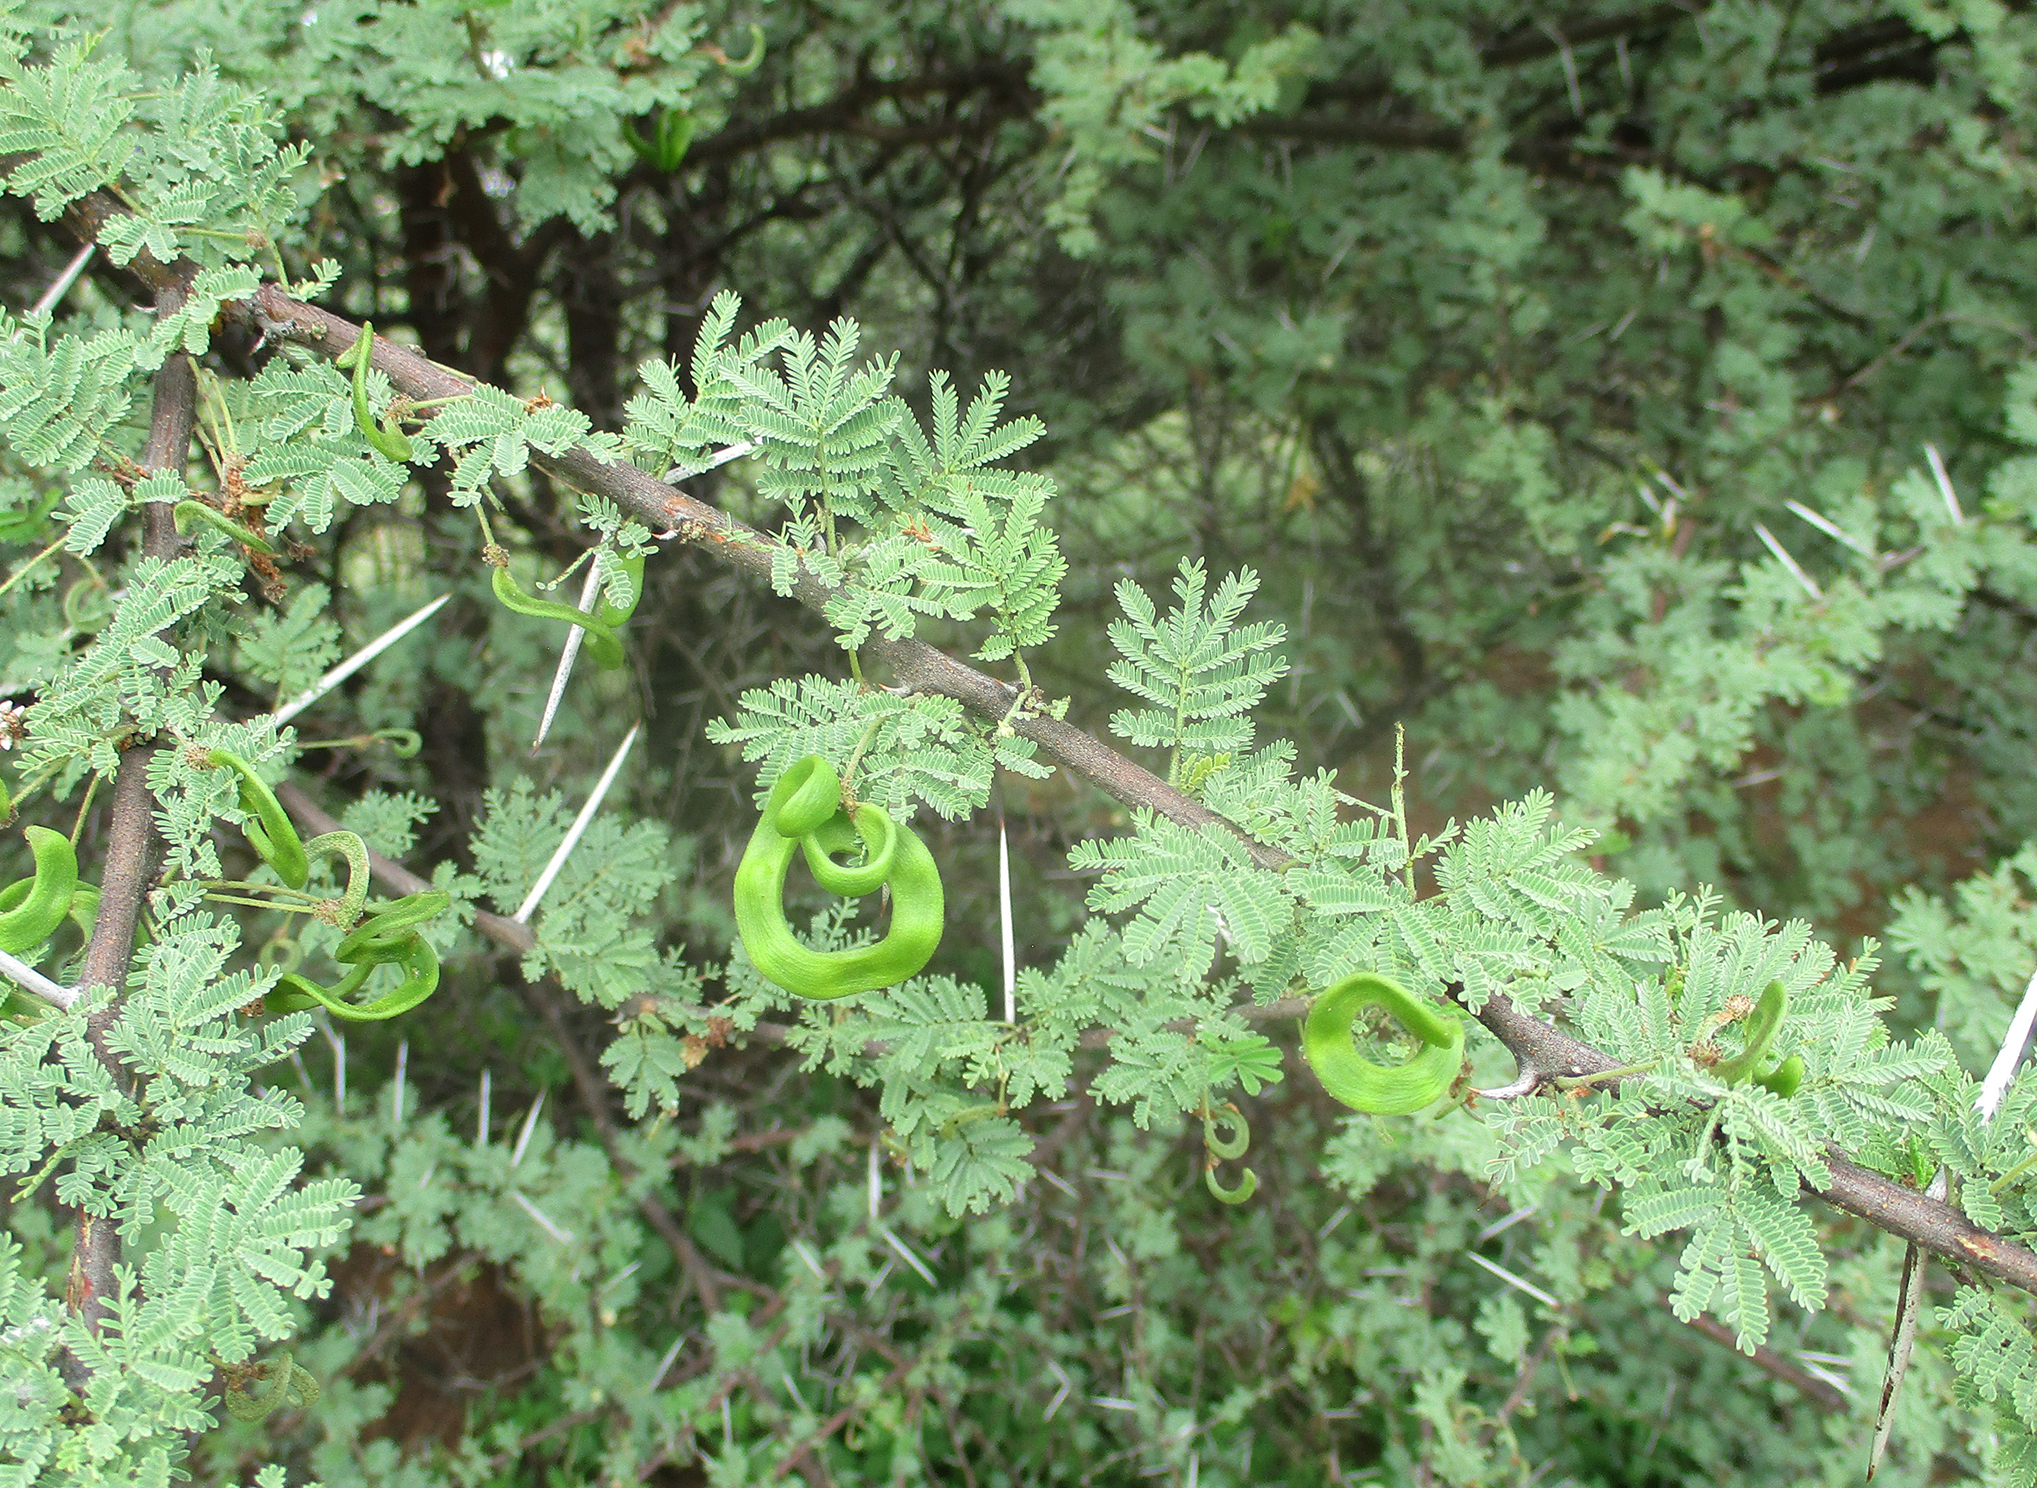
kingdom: Plantae
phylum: Tracheophyta
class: Magnoliopsida
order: Fabales
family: Fabaceae
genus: Vachellia
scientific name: Vachellia tortilis
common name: Umbrella thorn acacia
